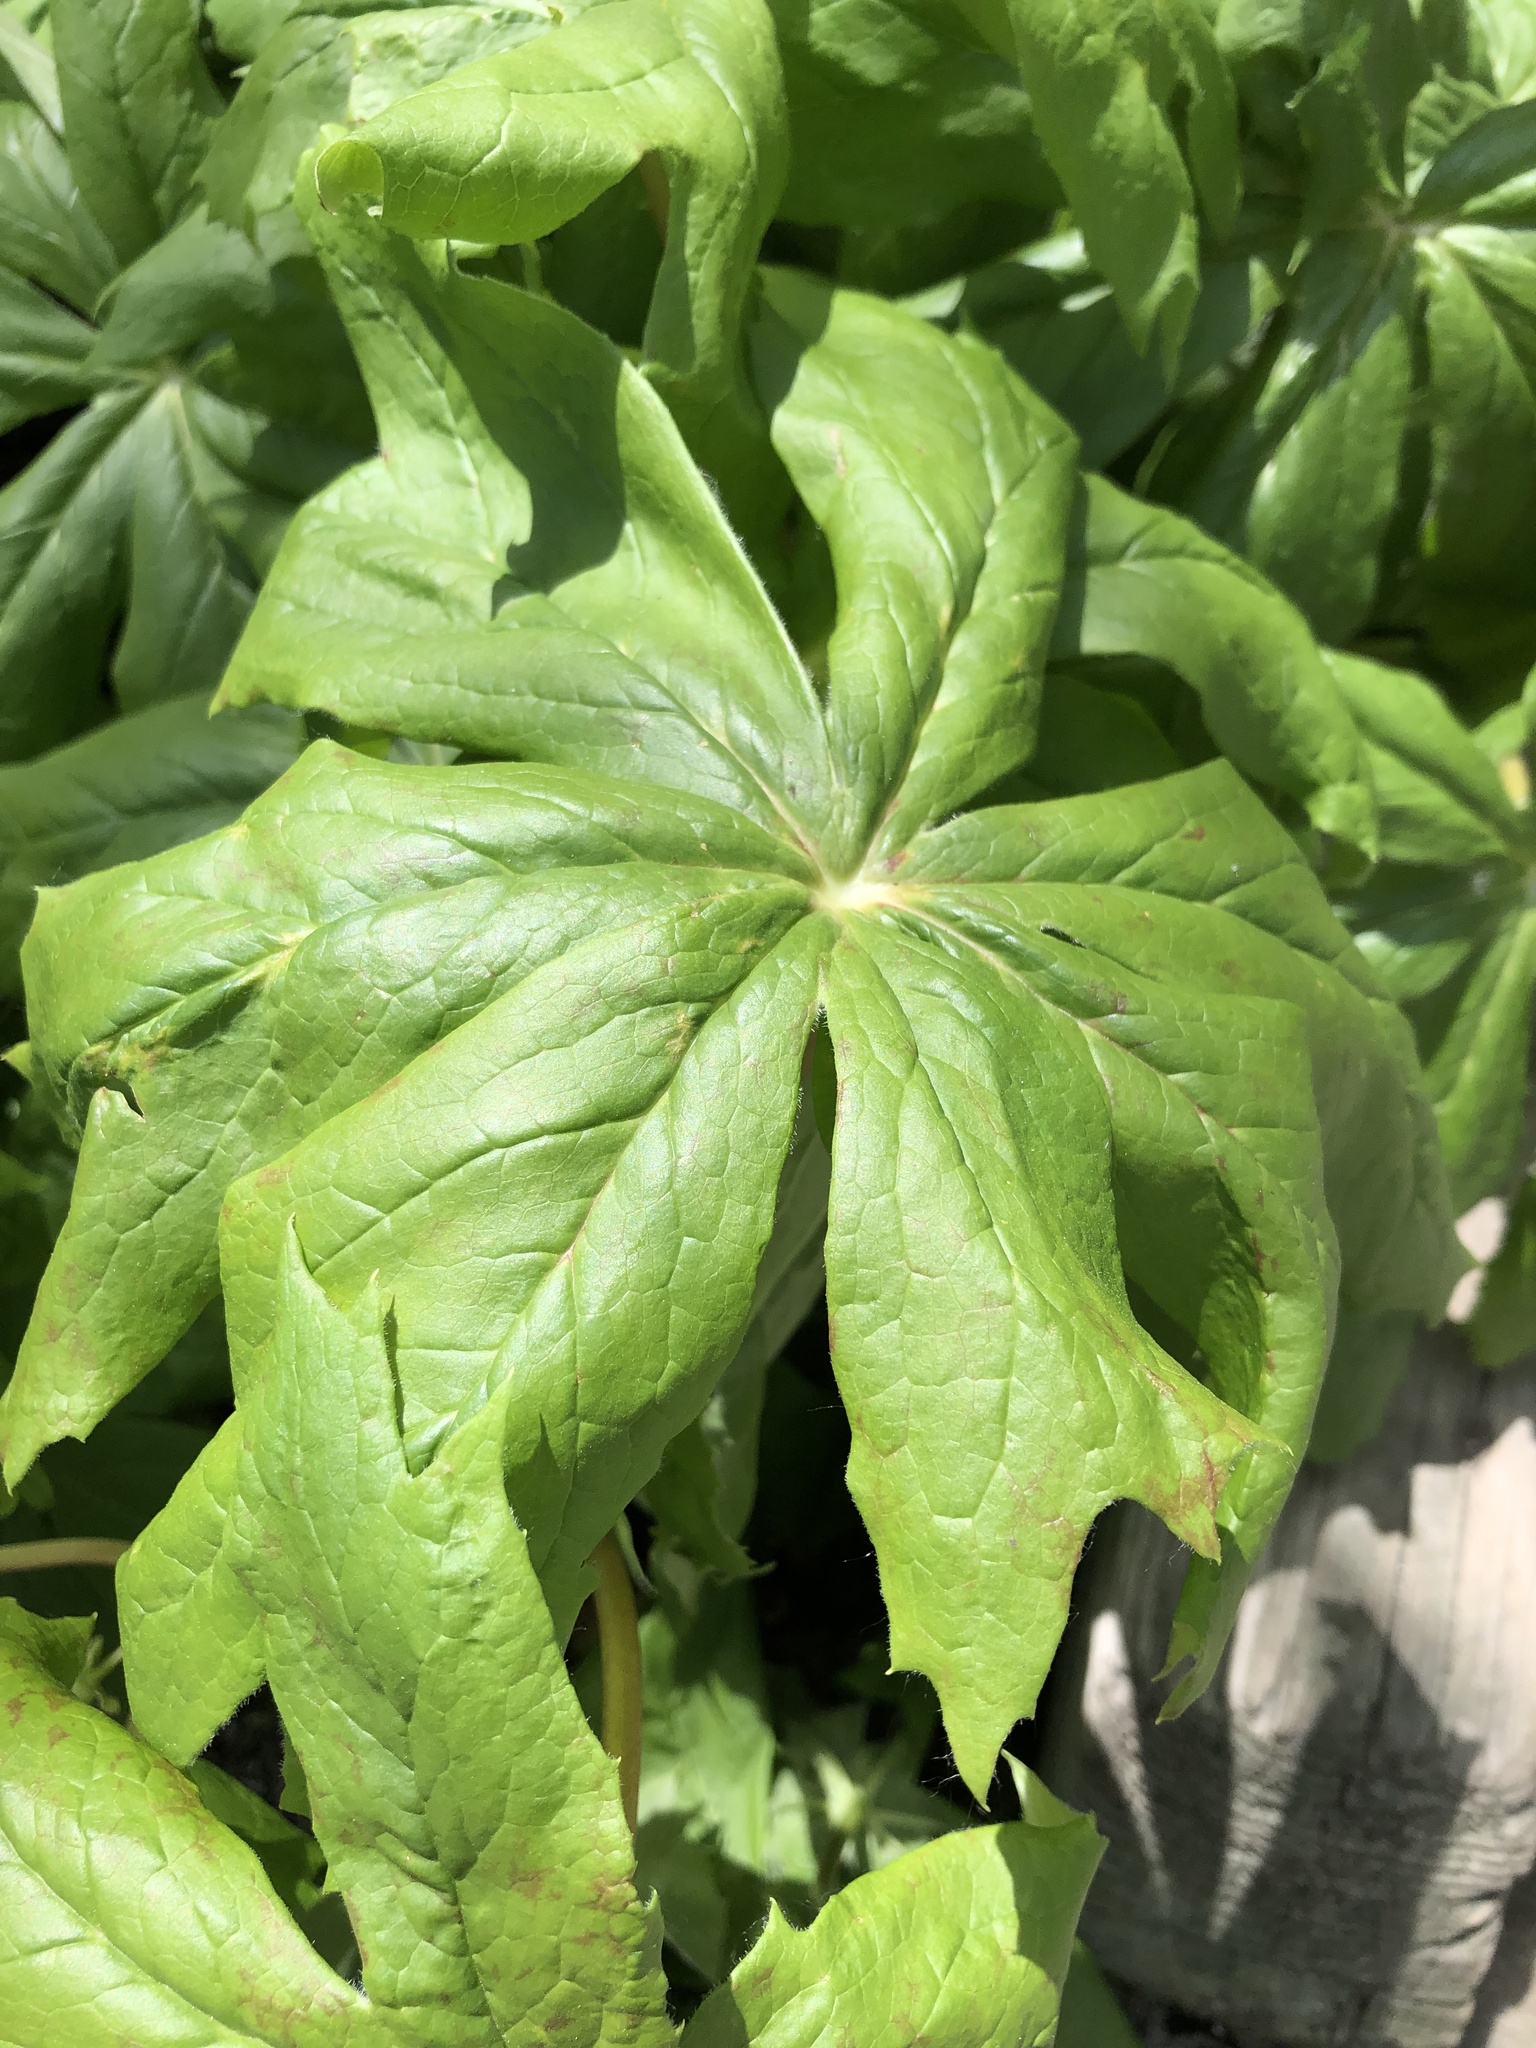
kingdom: Plantae
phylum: Tracheophyta
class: Magnoliopsida
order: Ranunculales
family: Berberidaceae
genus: Podophyllum
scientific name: Podophyllum peltatum
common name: Wild mandrake
